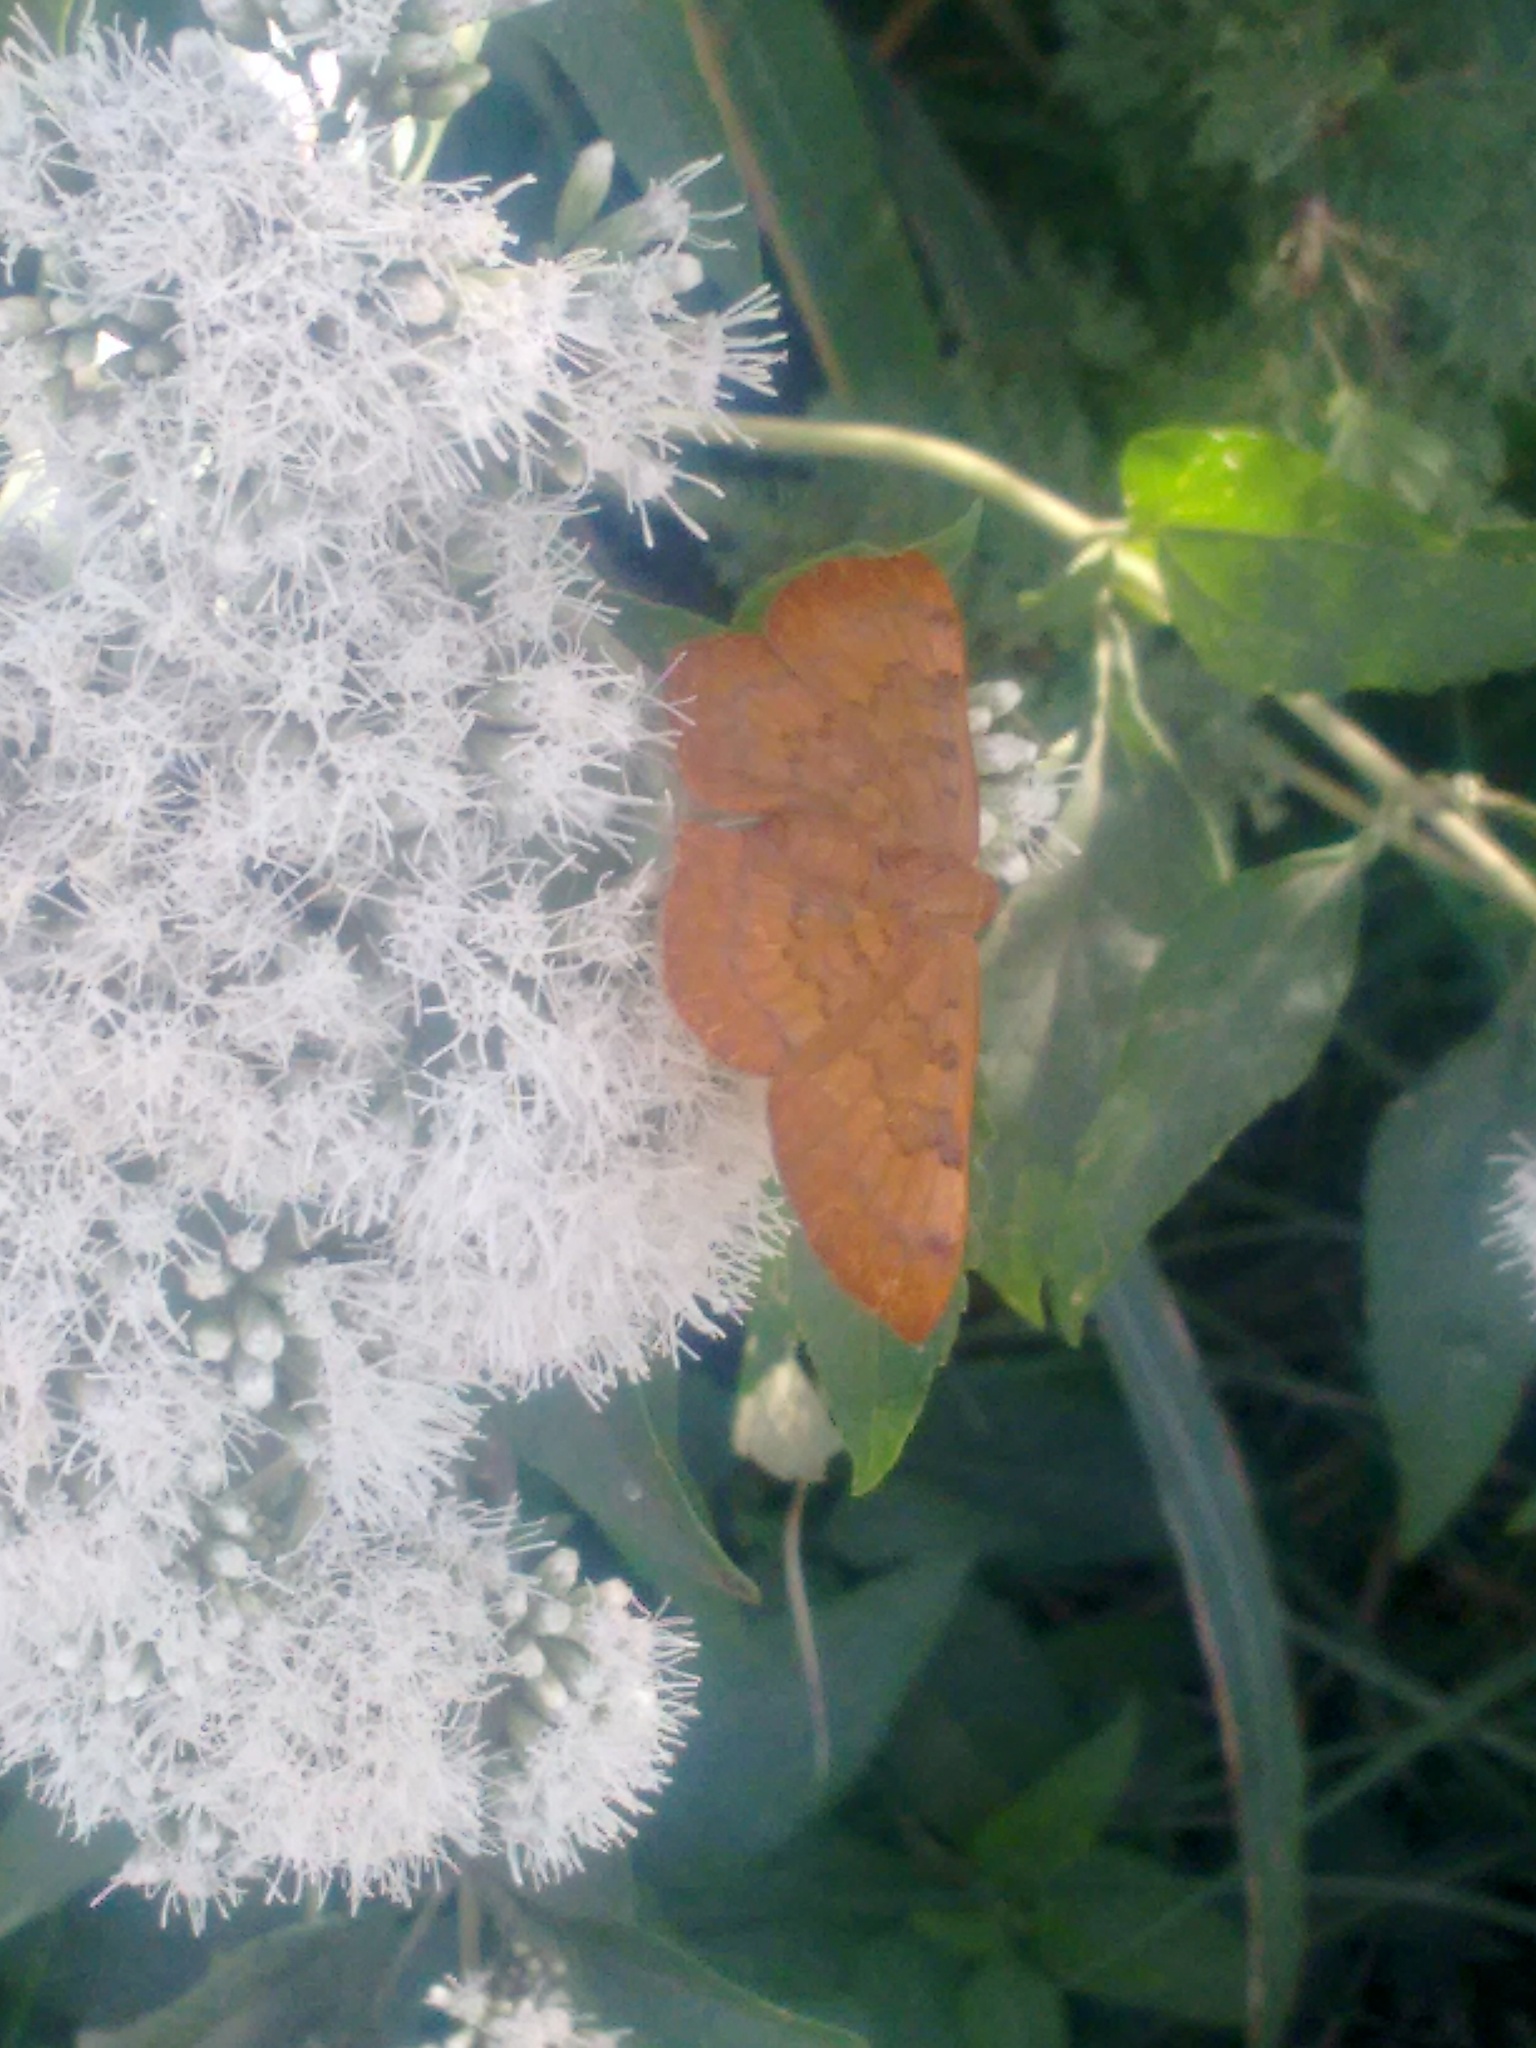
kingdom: Animalia
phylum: Arthropoda
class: Insecta
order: Lepidoptera
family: Lycaenidae
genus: Emesis
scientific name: Emesis russula
